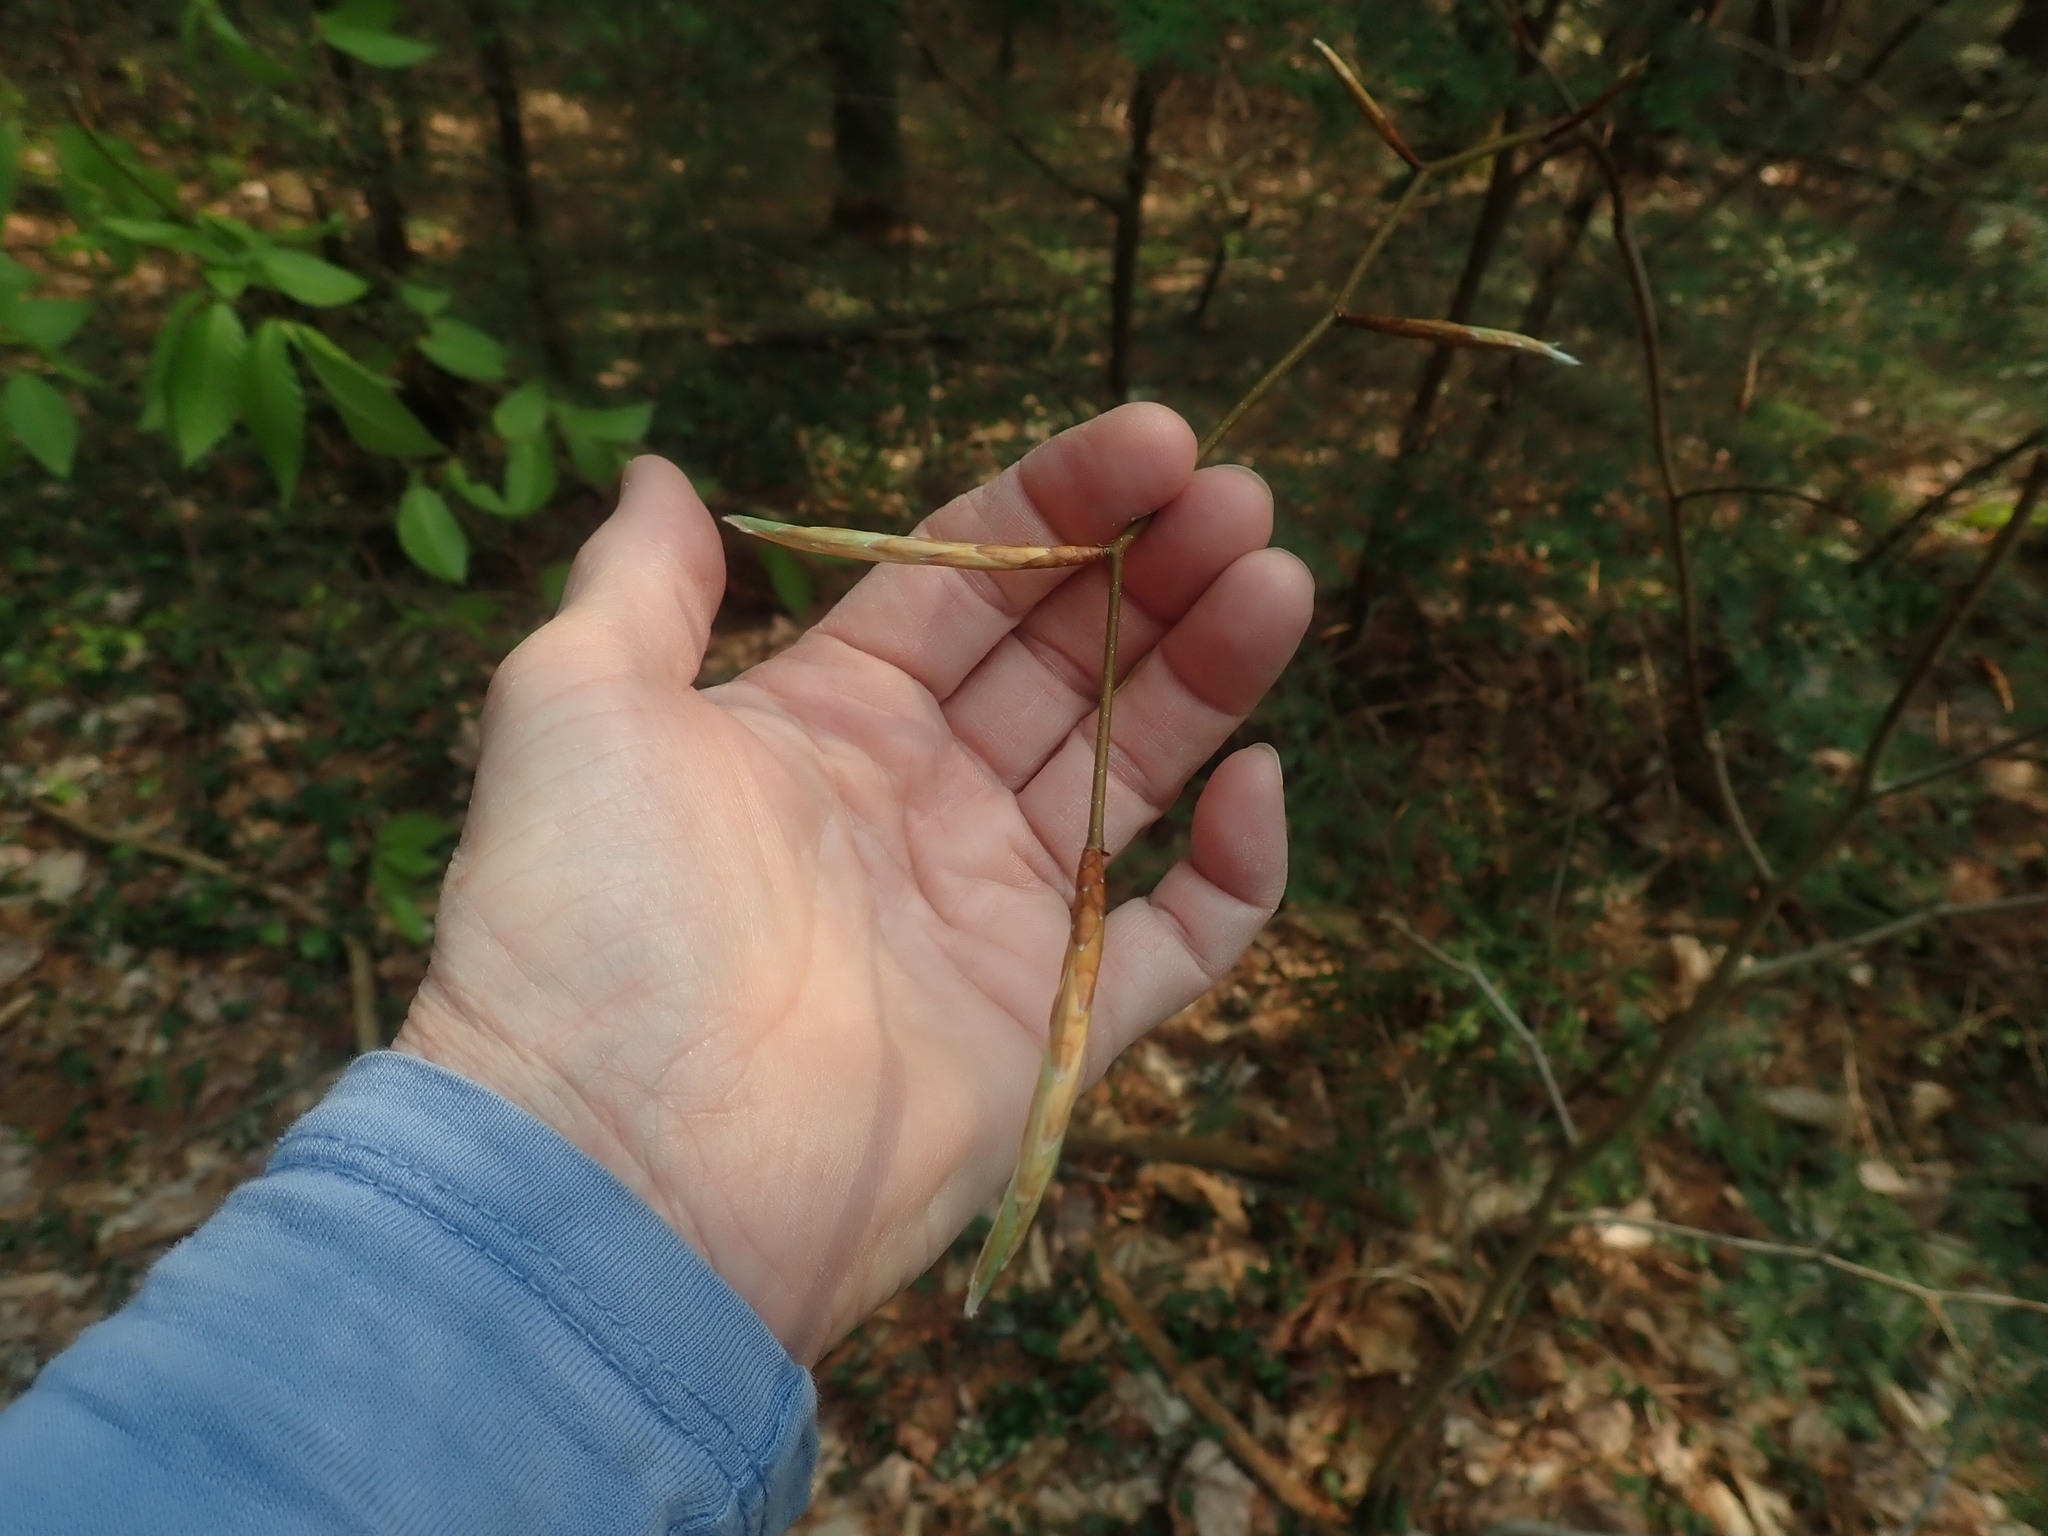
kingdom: Plantae
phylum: Tracheophyta
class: Magnoliopsida
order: Fagales
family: Fagaceae
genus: Fagus
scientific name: Fagus grandifolia
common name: American beech
